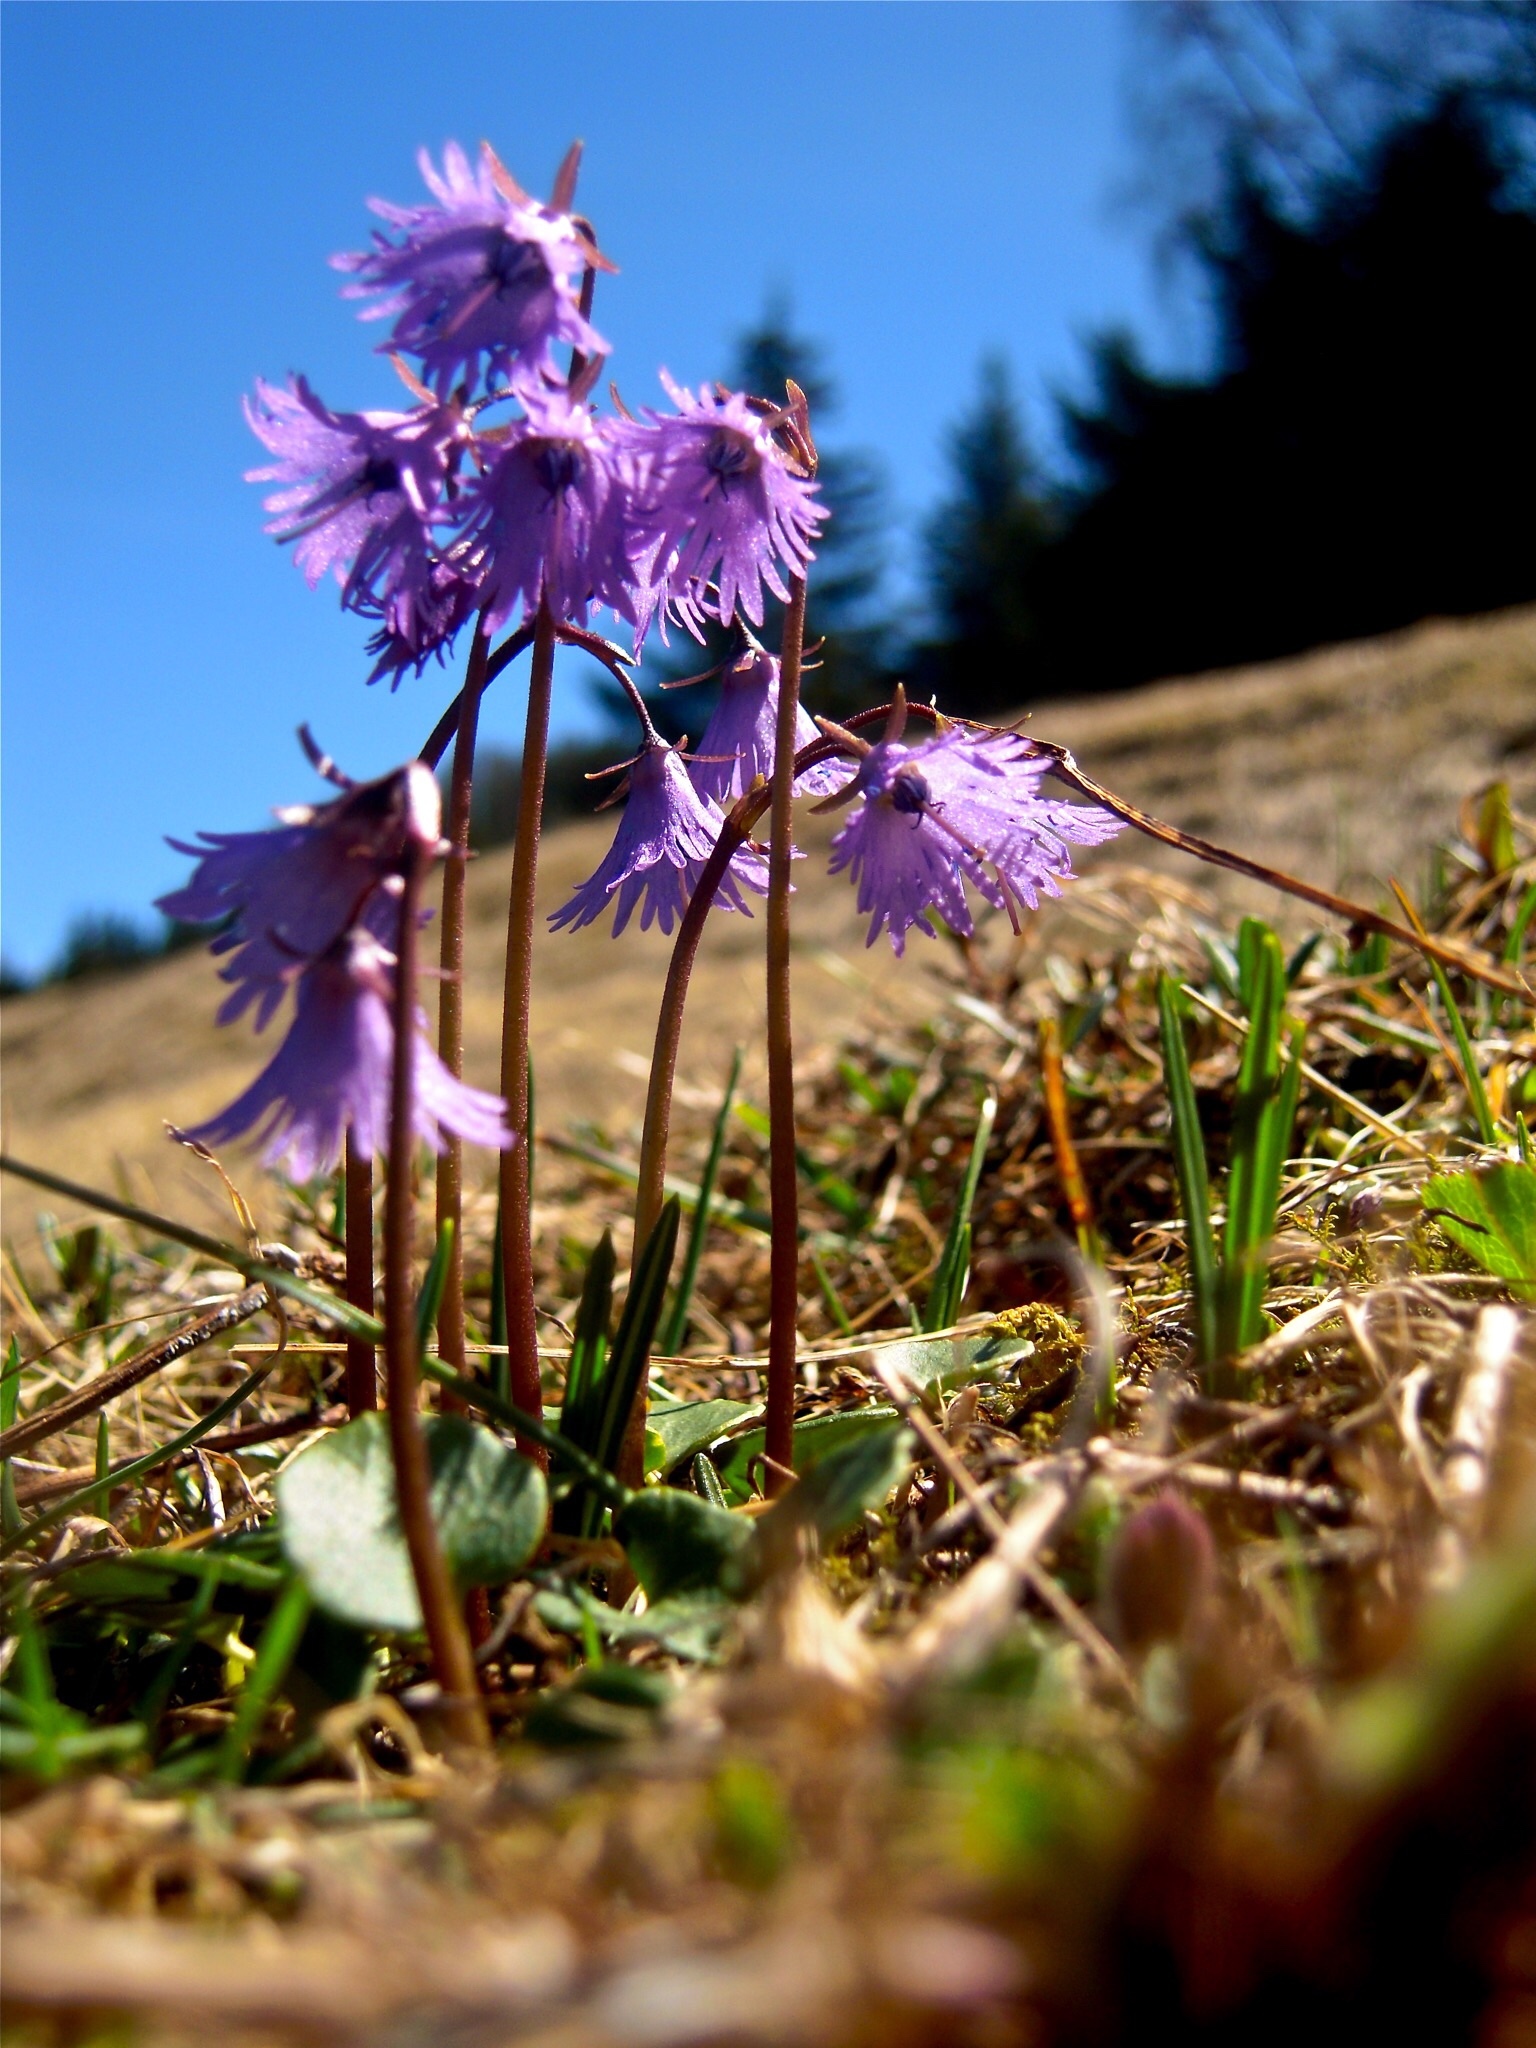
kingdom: Plantae
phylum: Tracheophyta
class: Magnoliopsida
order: Ericales
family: Primulaceae
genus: Soldanella
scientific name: Soldanella alpina
